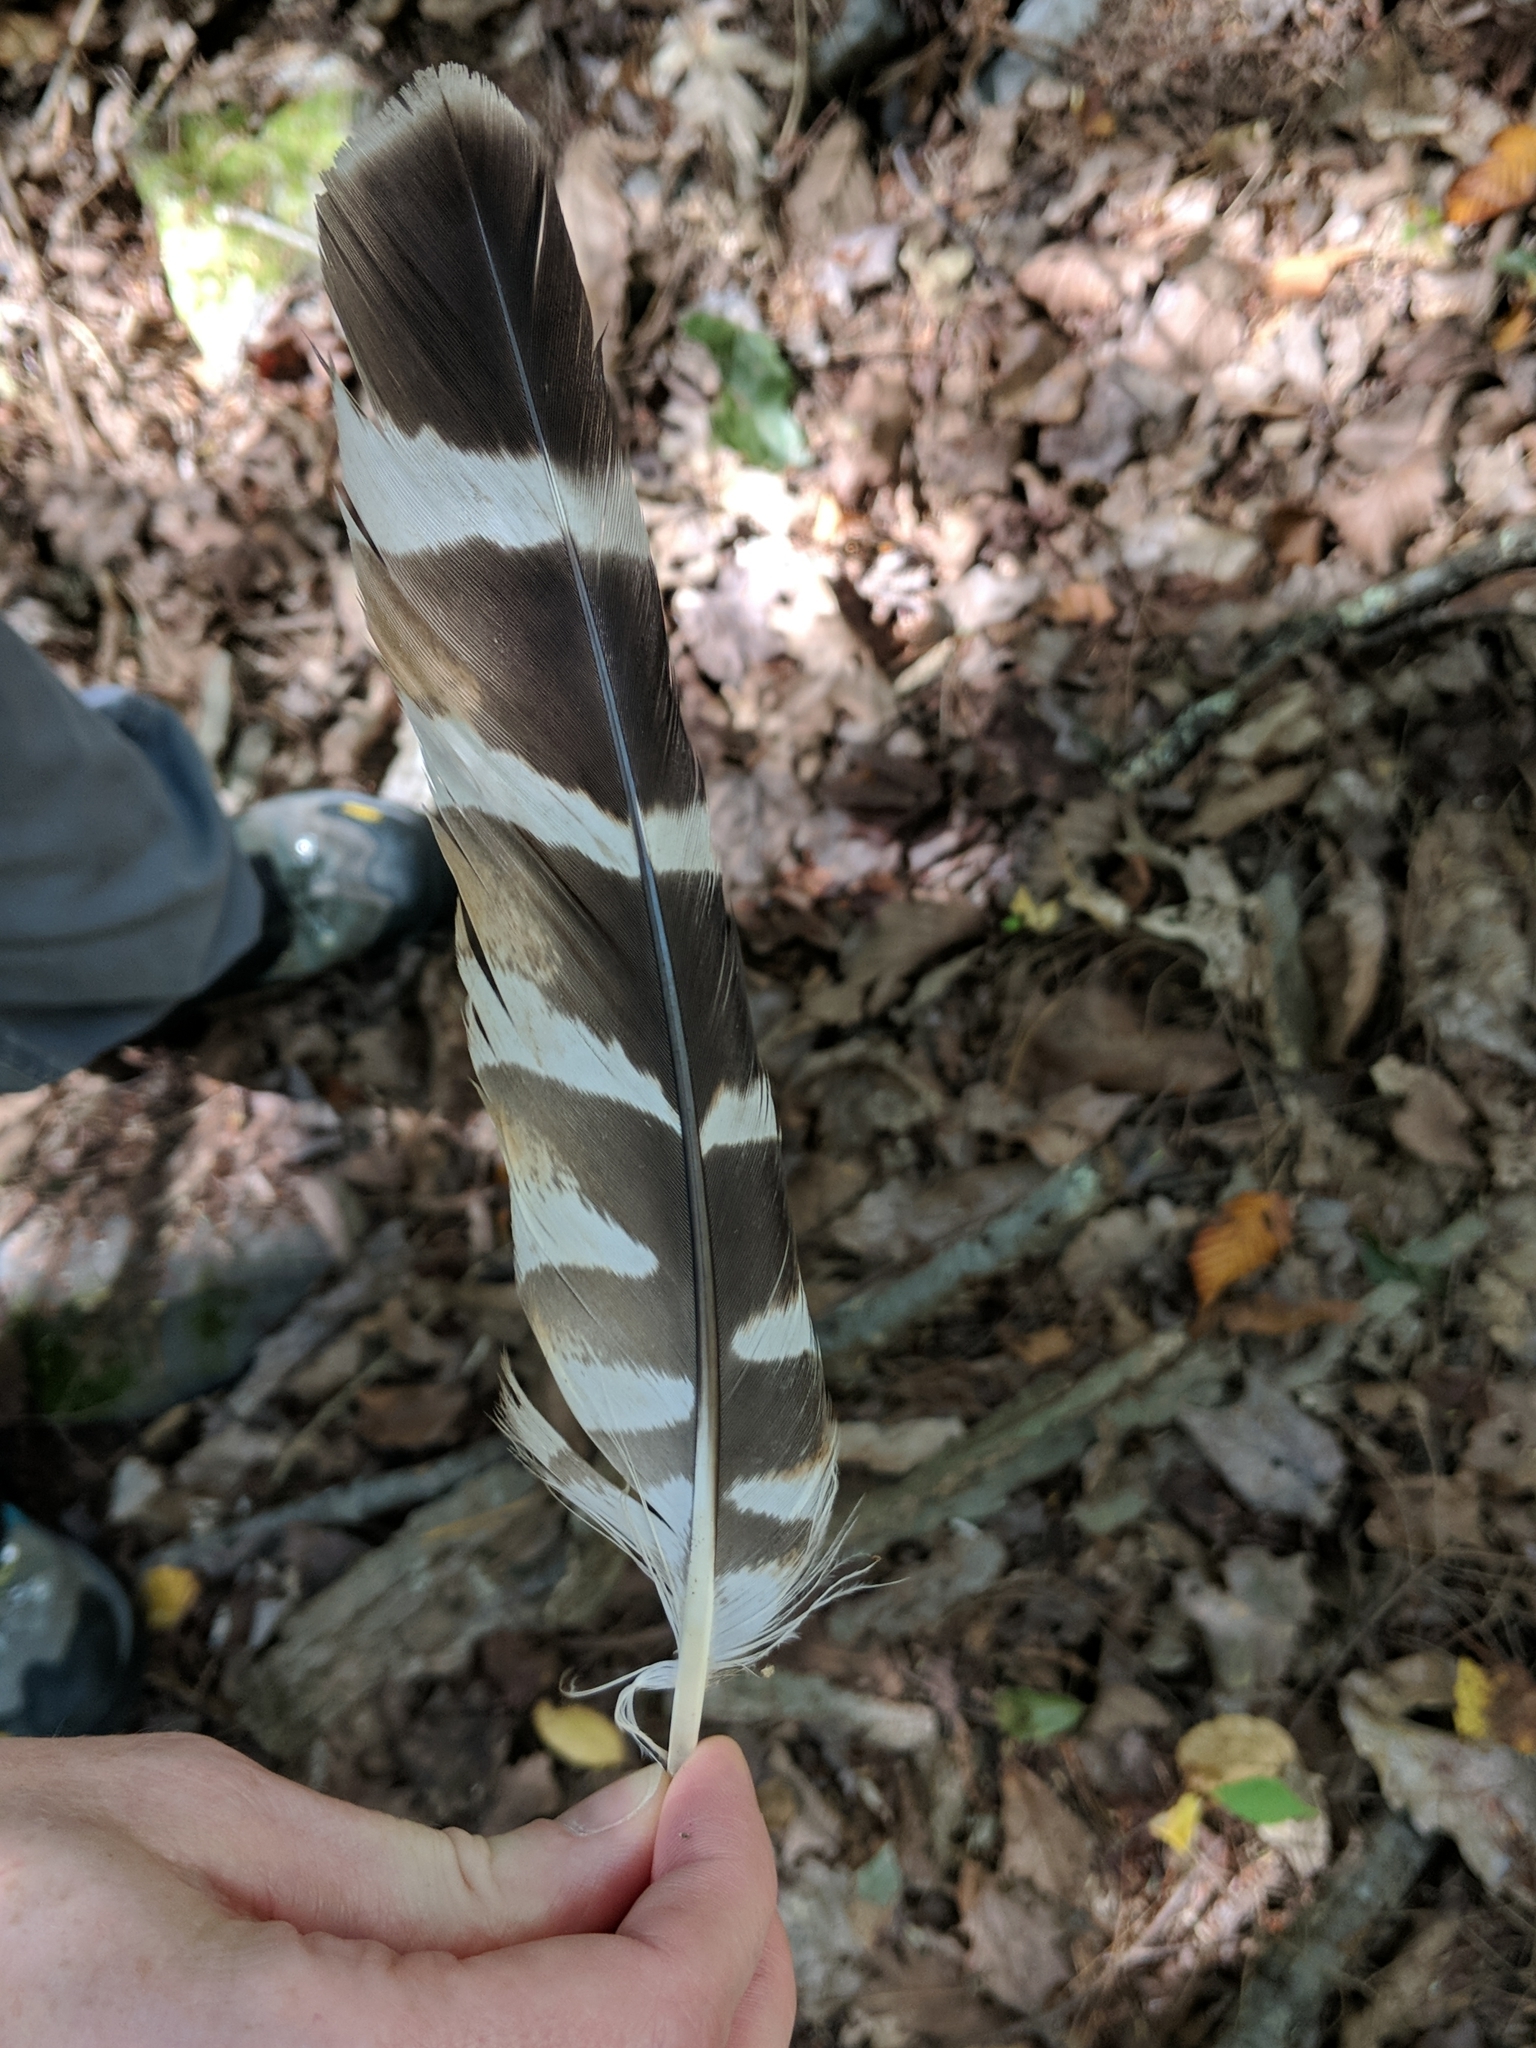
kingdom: Animalia
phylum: Chordata
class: Aves
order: Accipitriformes
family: Accipitridae
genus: Buteo
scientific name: Buteo lineatus
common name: Red-shouldered hawk
